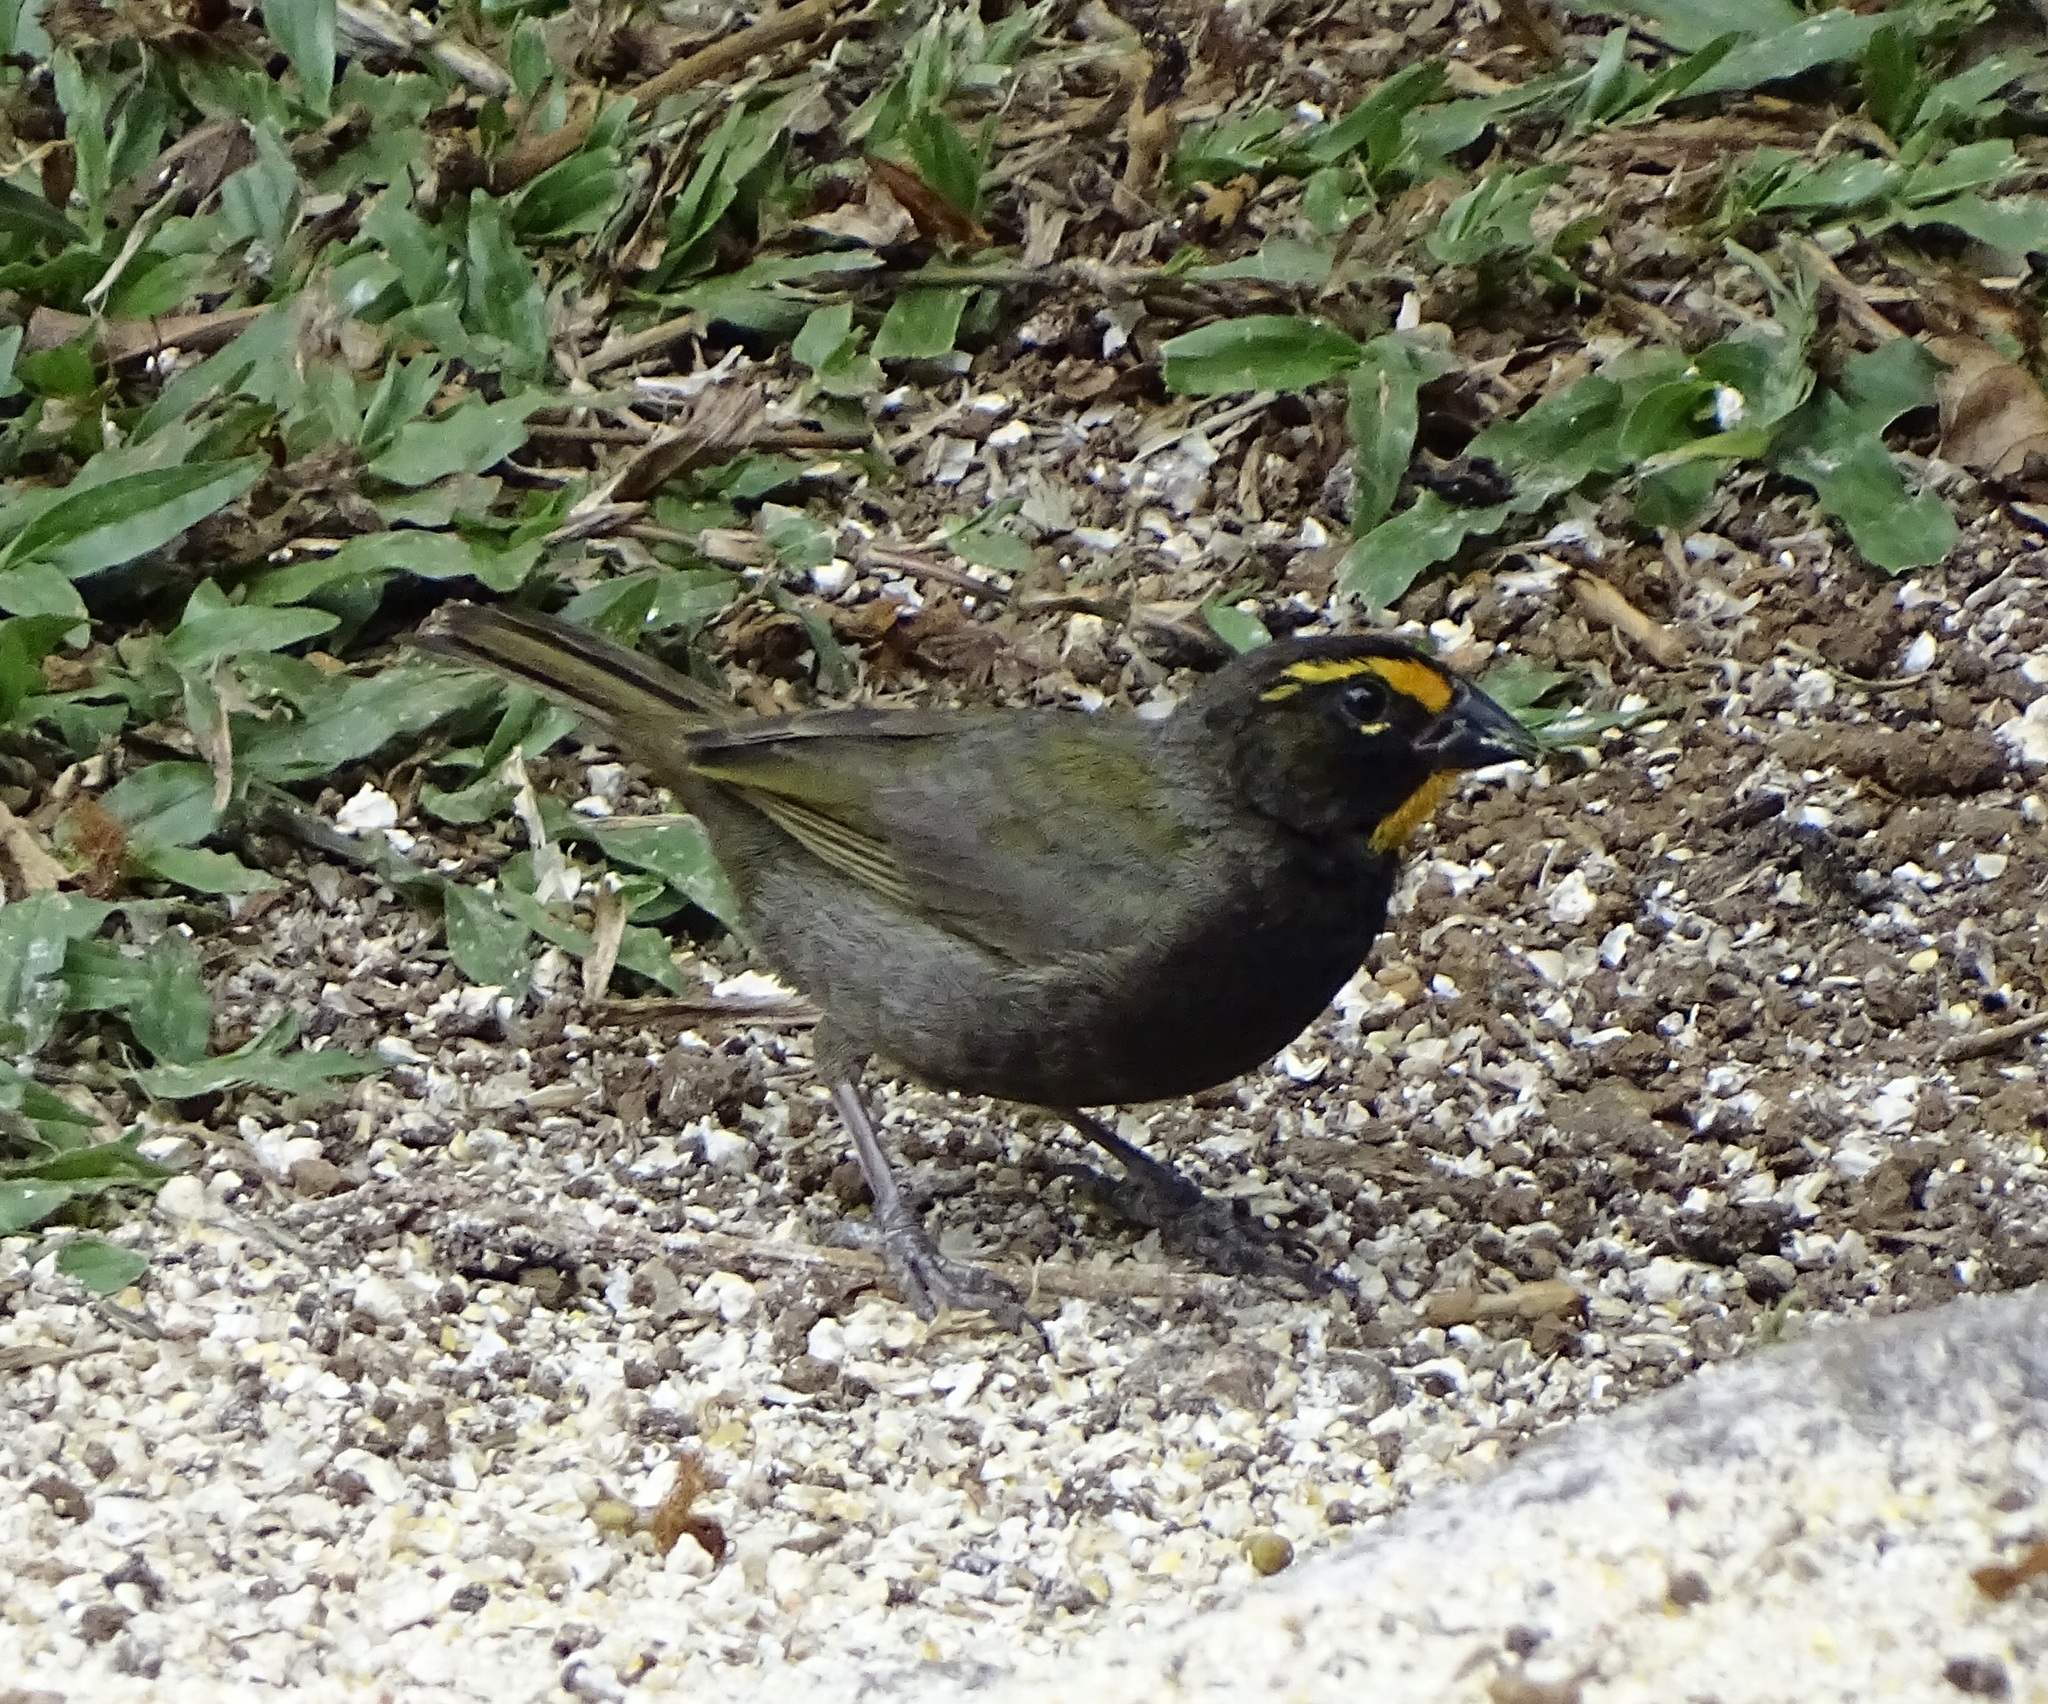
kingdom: Animalia
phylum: Chordata
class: Aves
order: Passeriformes
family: Thraupidae
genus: Tiaris
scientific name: Tiaris olivaceus
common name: Yellow-faced grassquit
